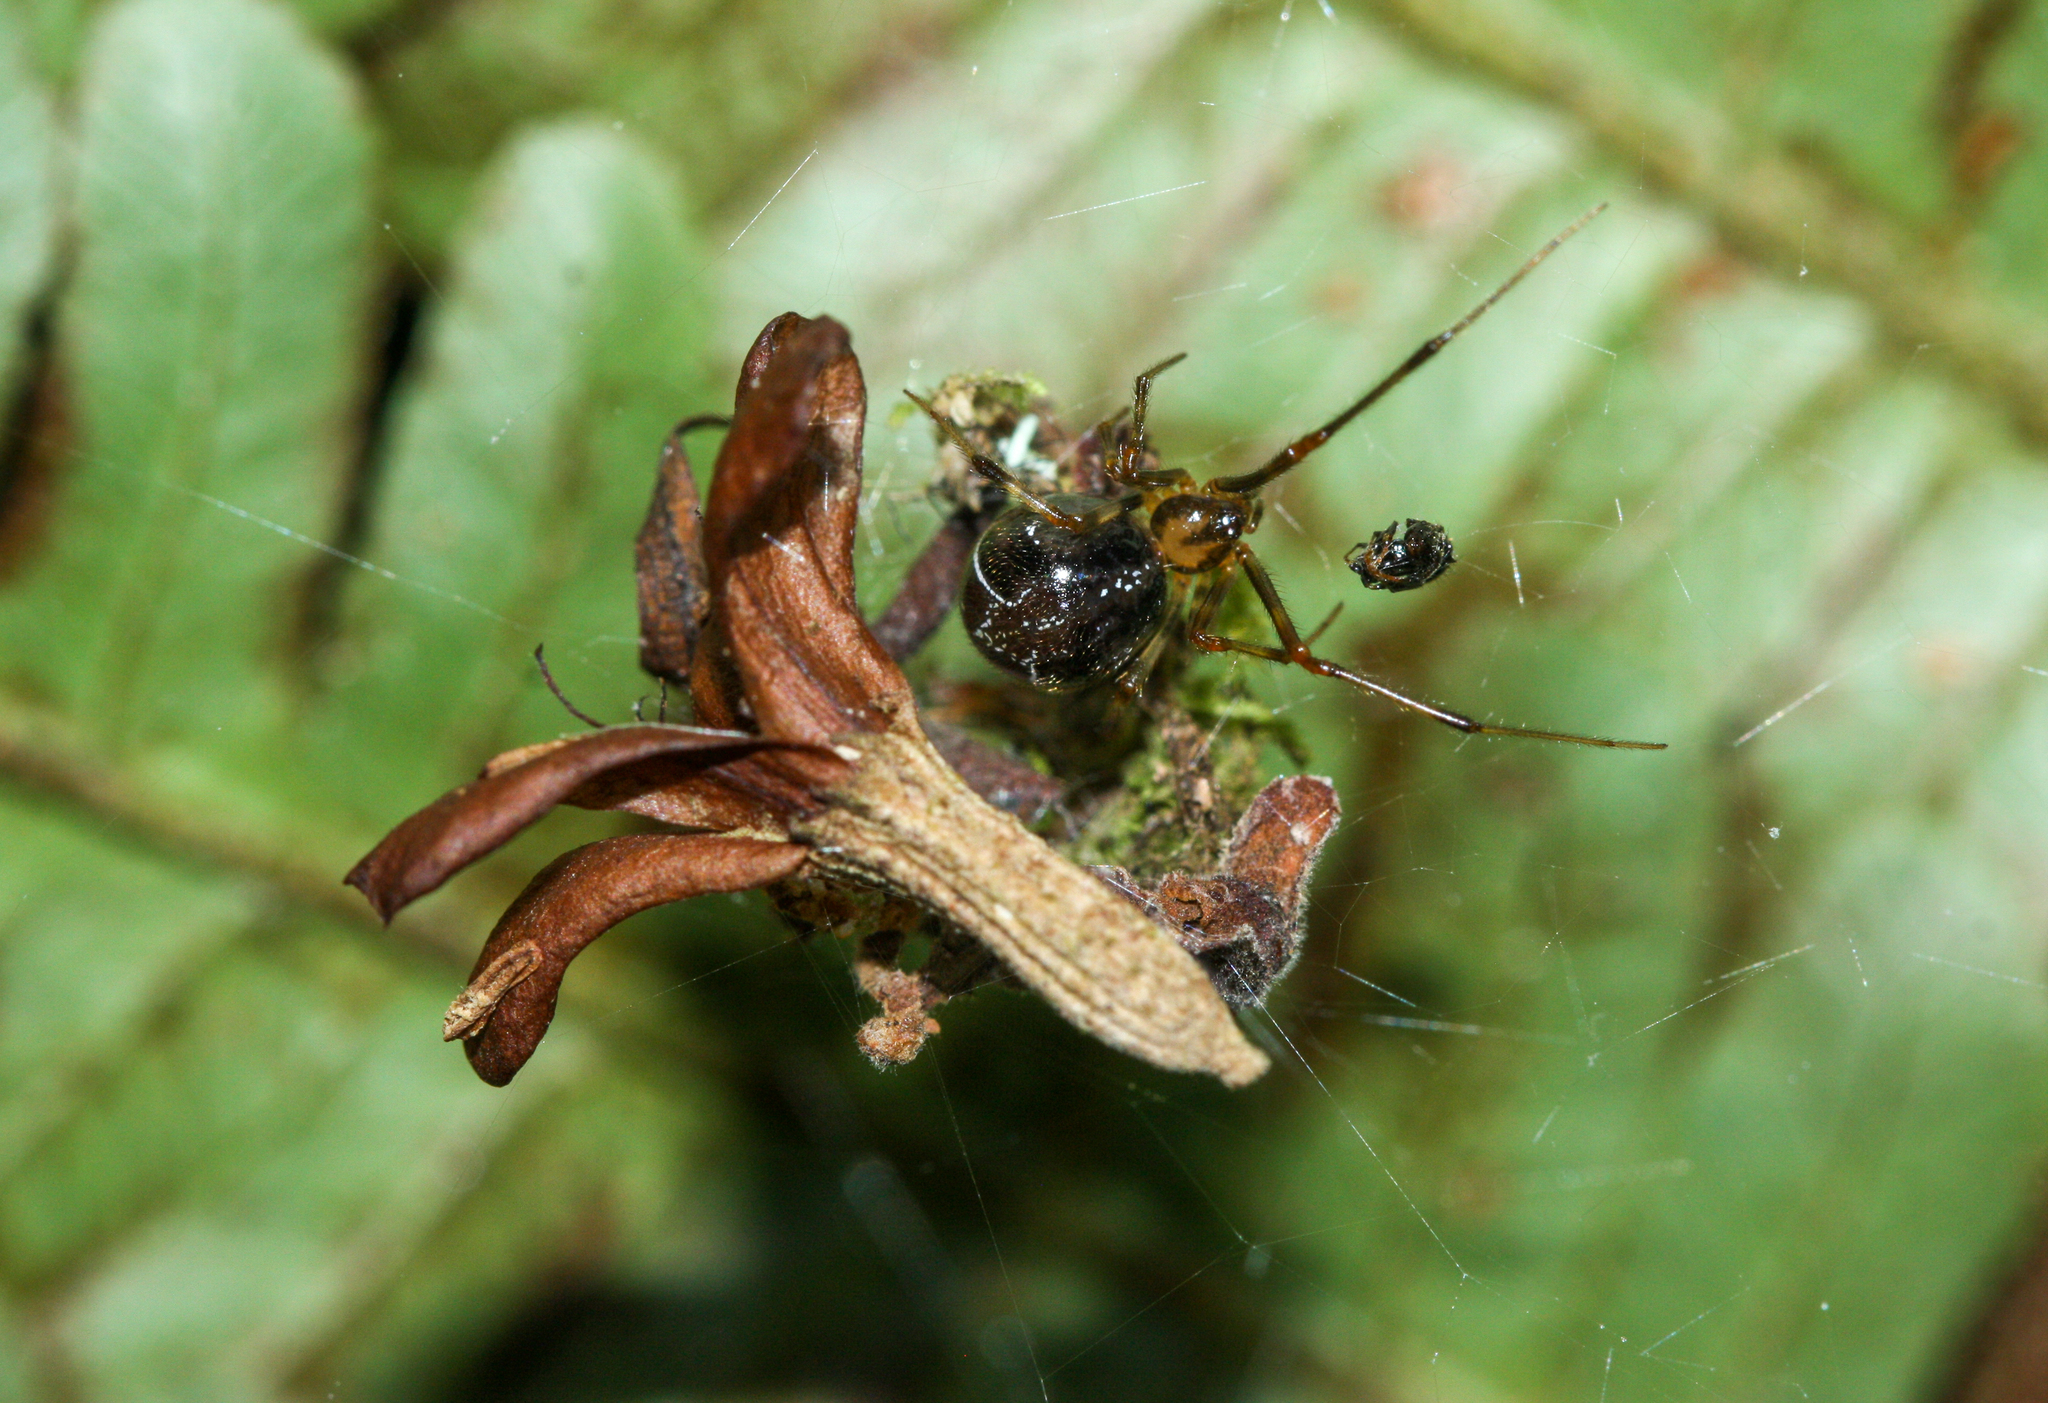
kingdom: Animalia
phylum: Arthropoda
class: Arachnida
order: Araneae
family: Theridiidae
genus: Nihonhimea
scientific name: Nihonhimea tesselata
